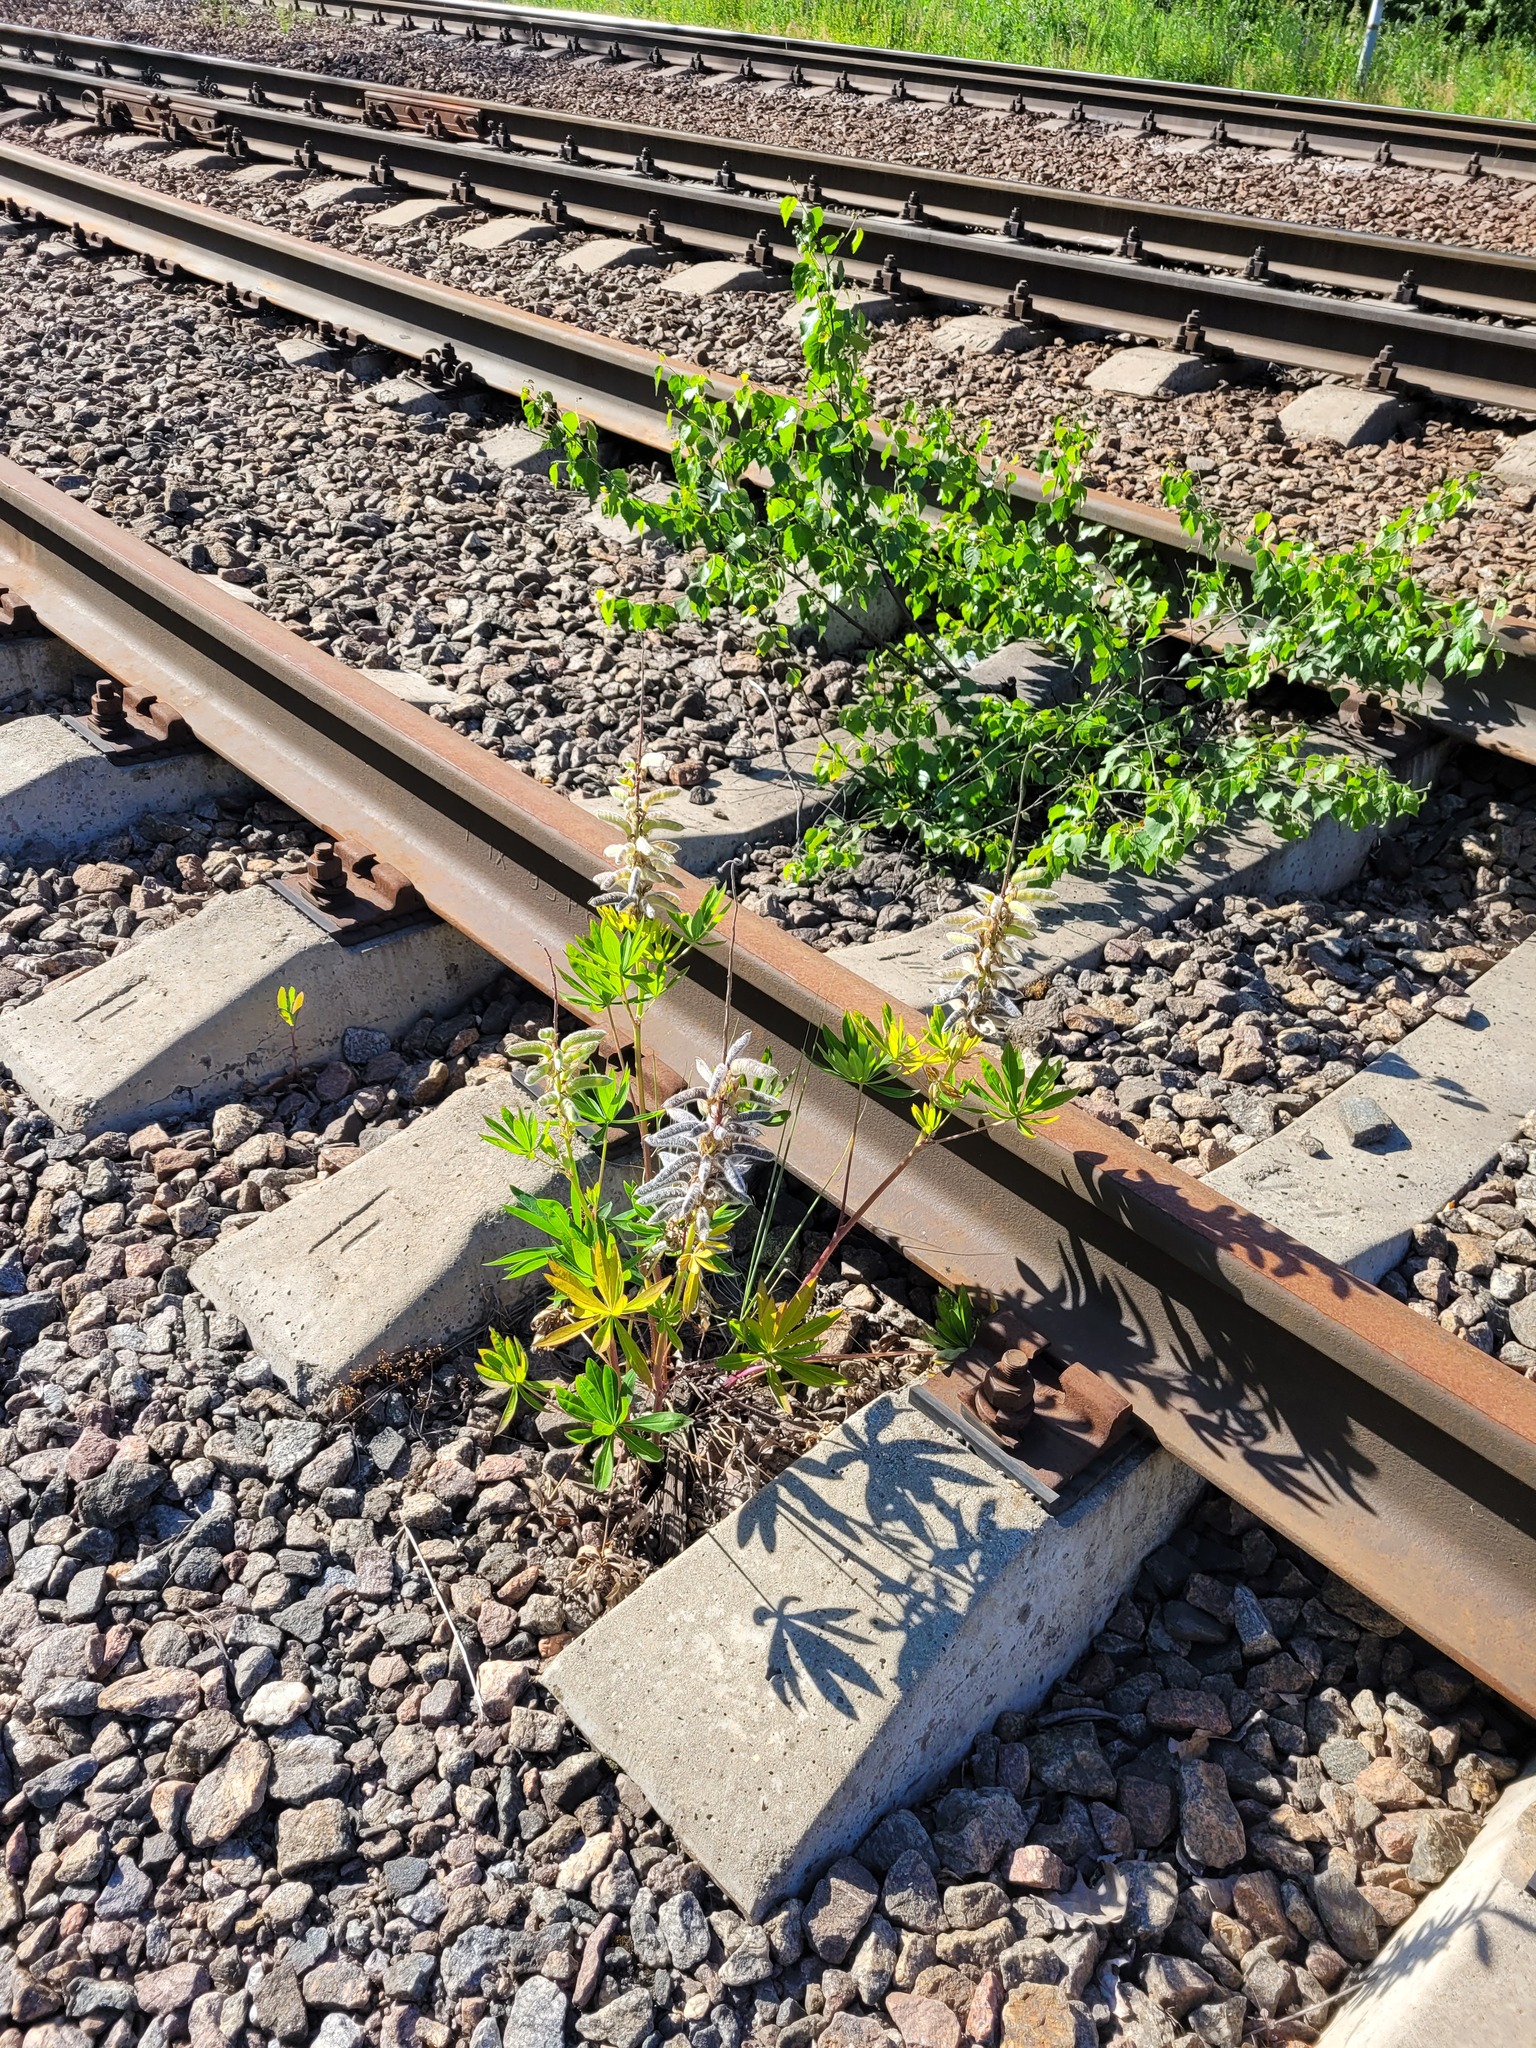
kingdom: Plantae
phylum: Tracheophyta
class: Magnoliopsida
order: Fabales
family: Fabaceae
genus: Lupinus
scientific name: Lupinus polyphyllus
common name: Garden lupin
